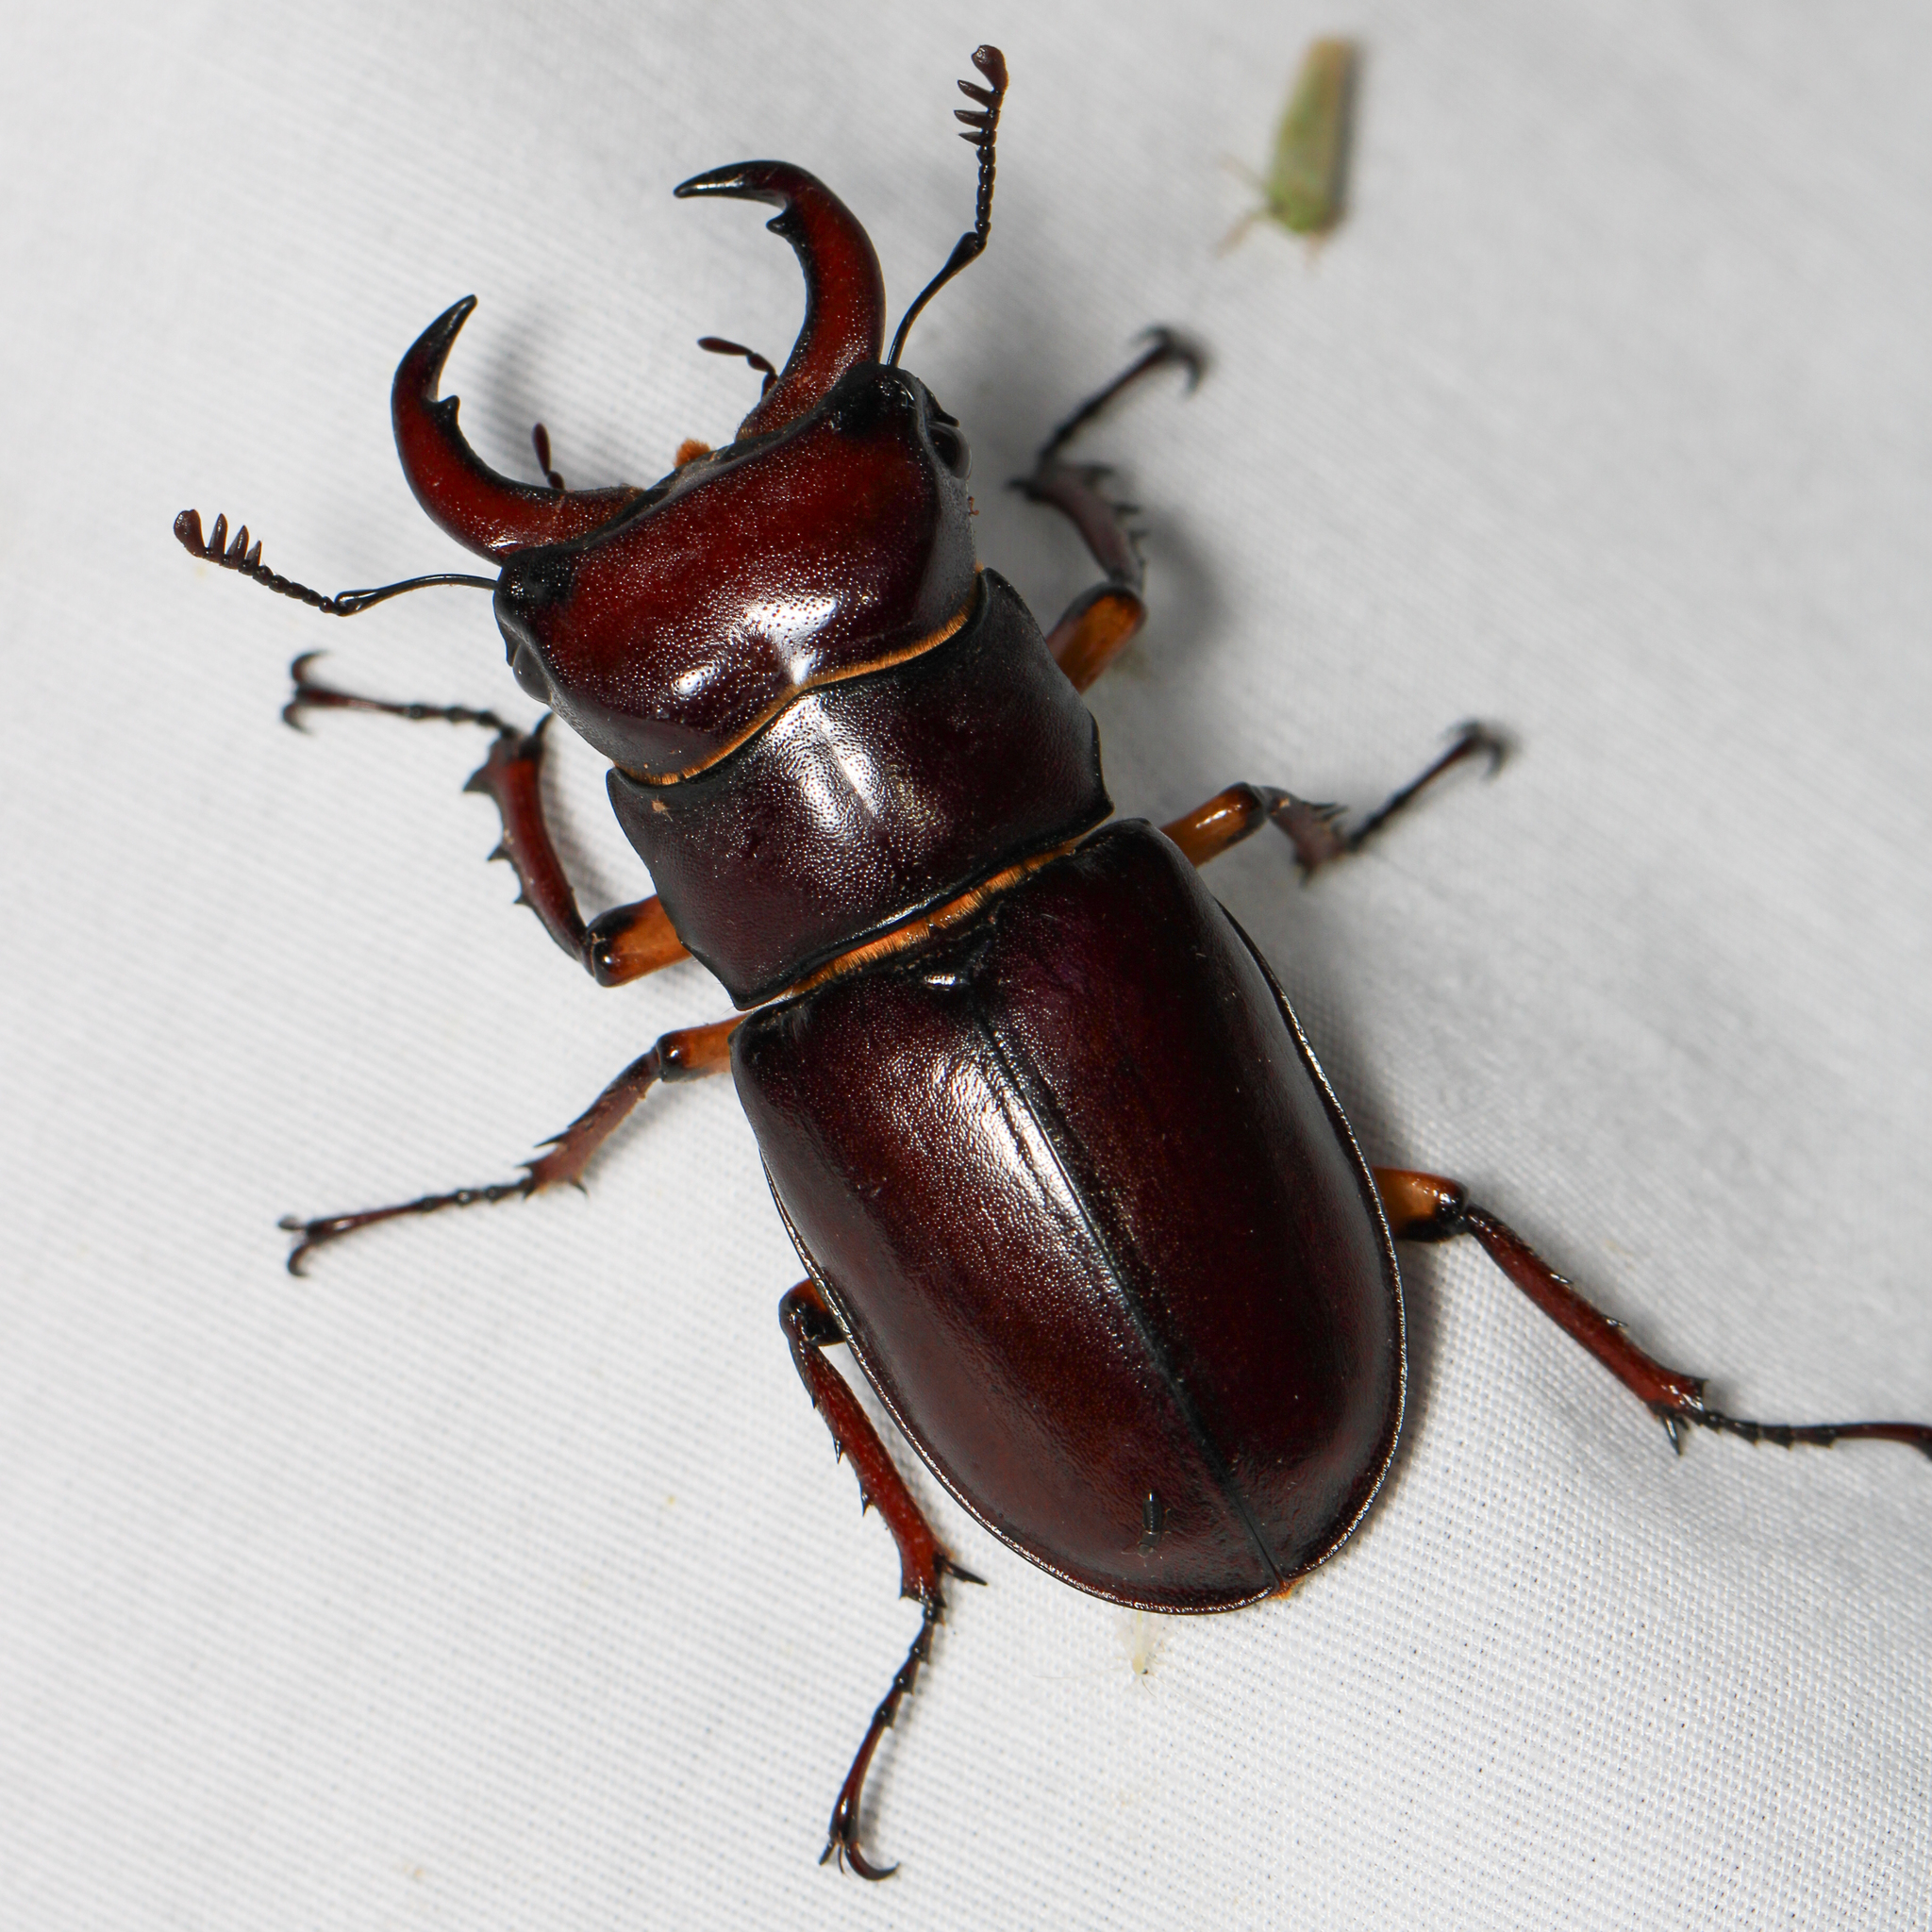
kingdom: Animalia
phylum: Arthropoda
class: Insecta
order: Coleoptera
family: Lucanidae
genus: Lucanus
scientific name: Lucanus capreolus
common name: Stag beetle
